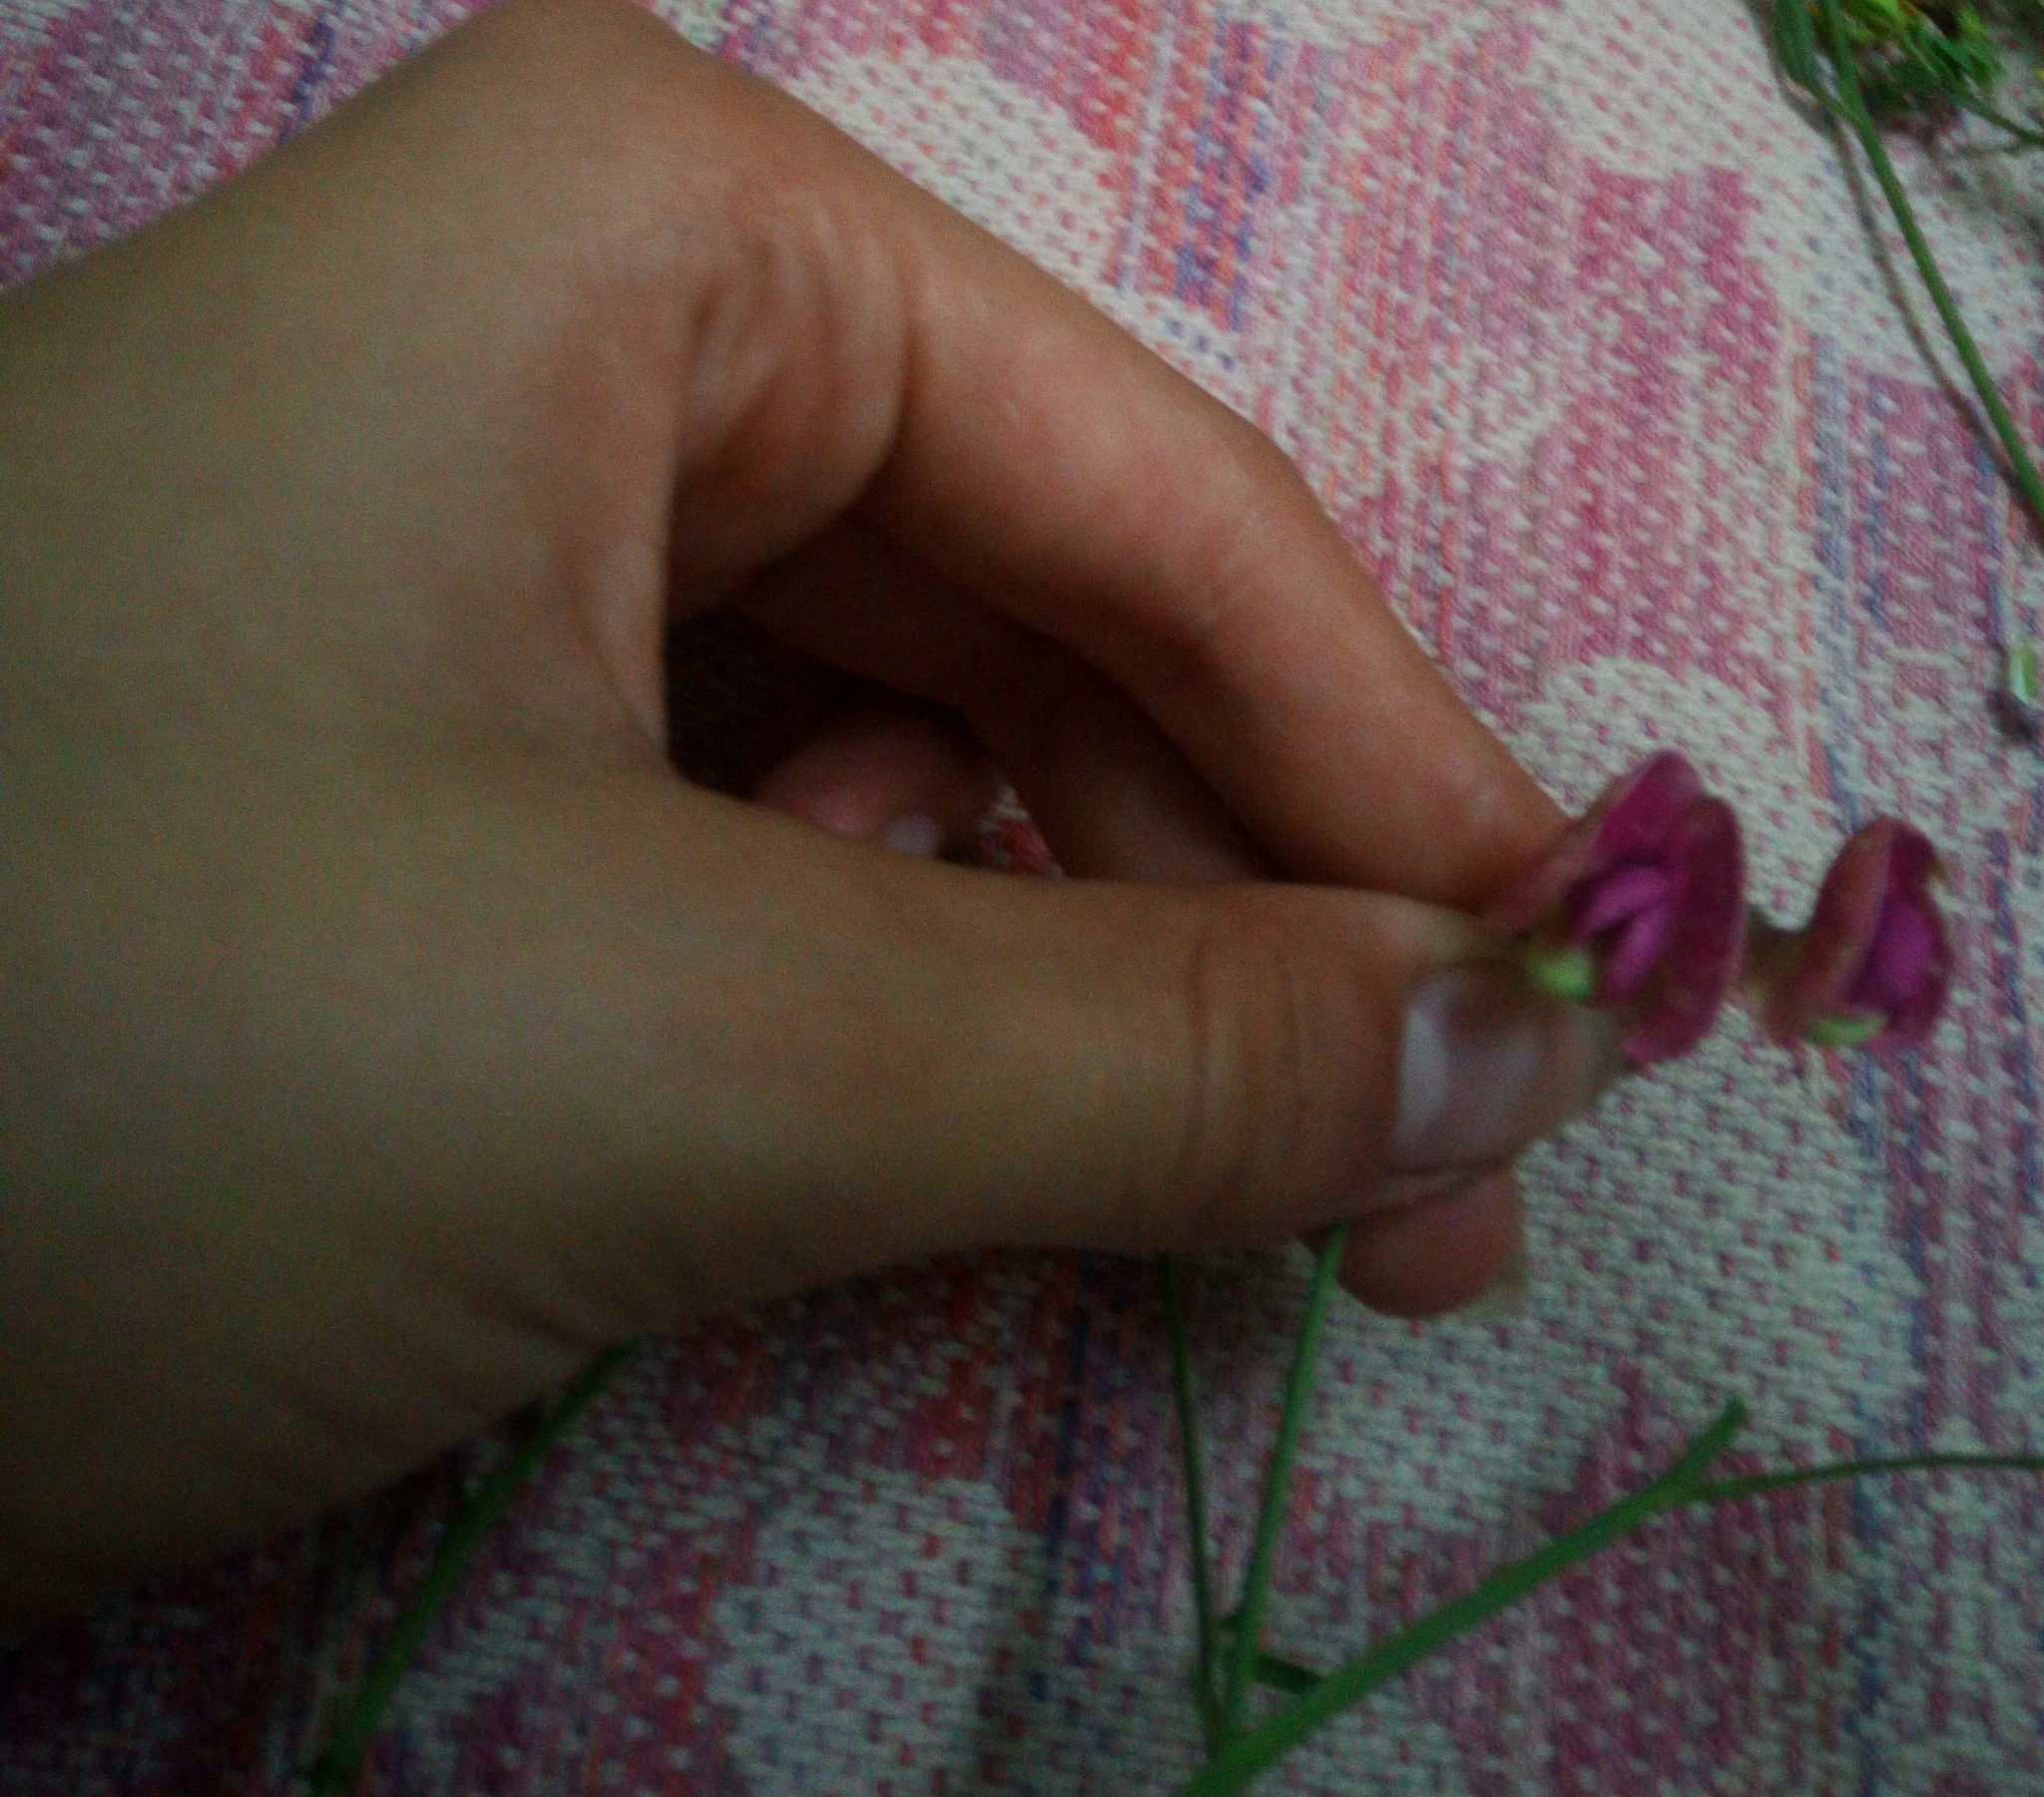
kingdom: Plantae
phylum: Tracheophyta
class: Magnoliopsida
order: Fabales
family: Fabaceae
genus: Lathyrus
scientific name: Lathyrus sylvestris
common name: Flat pea
